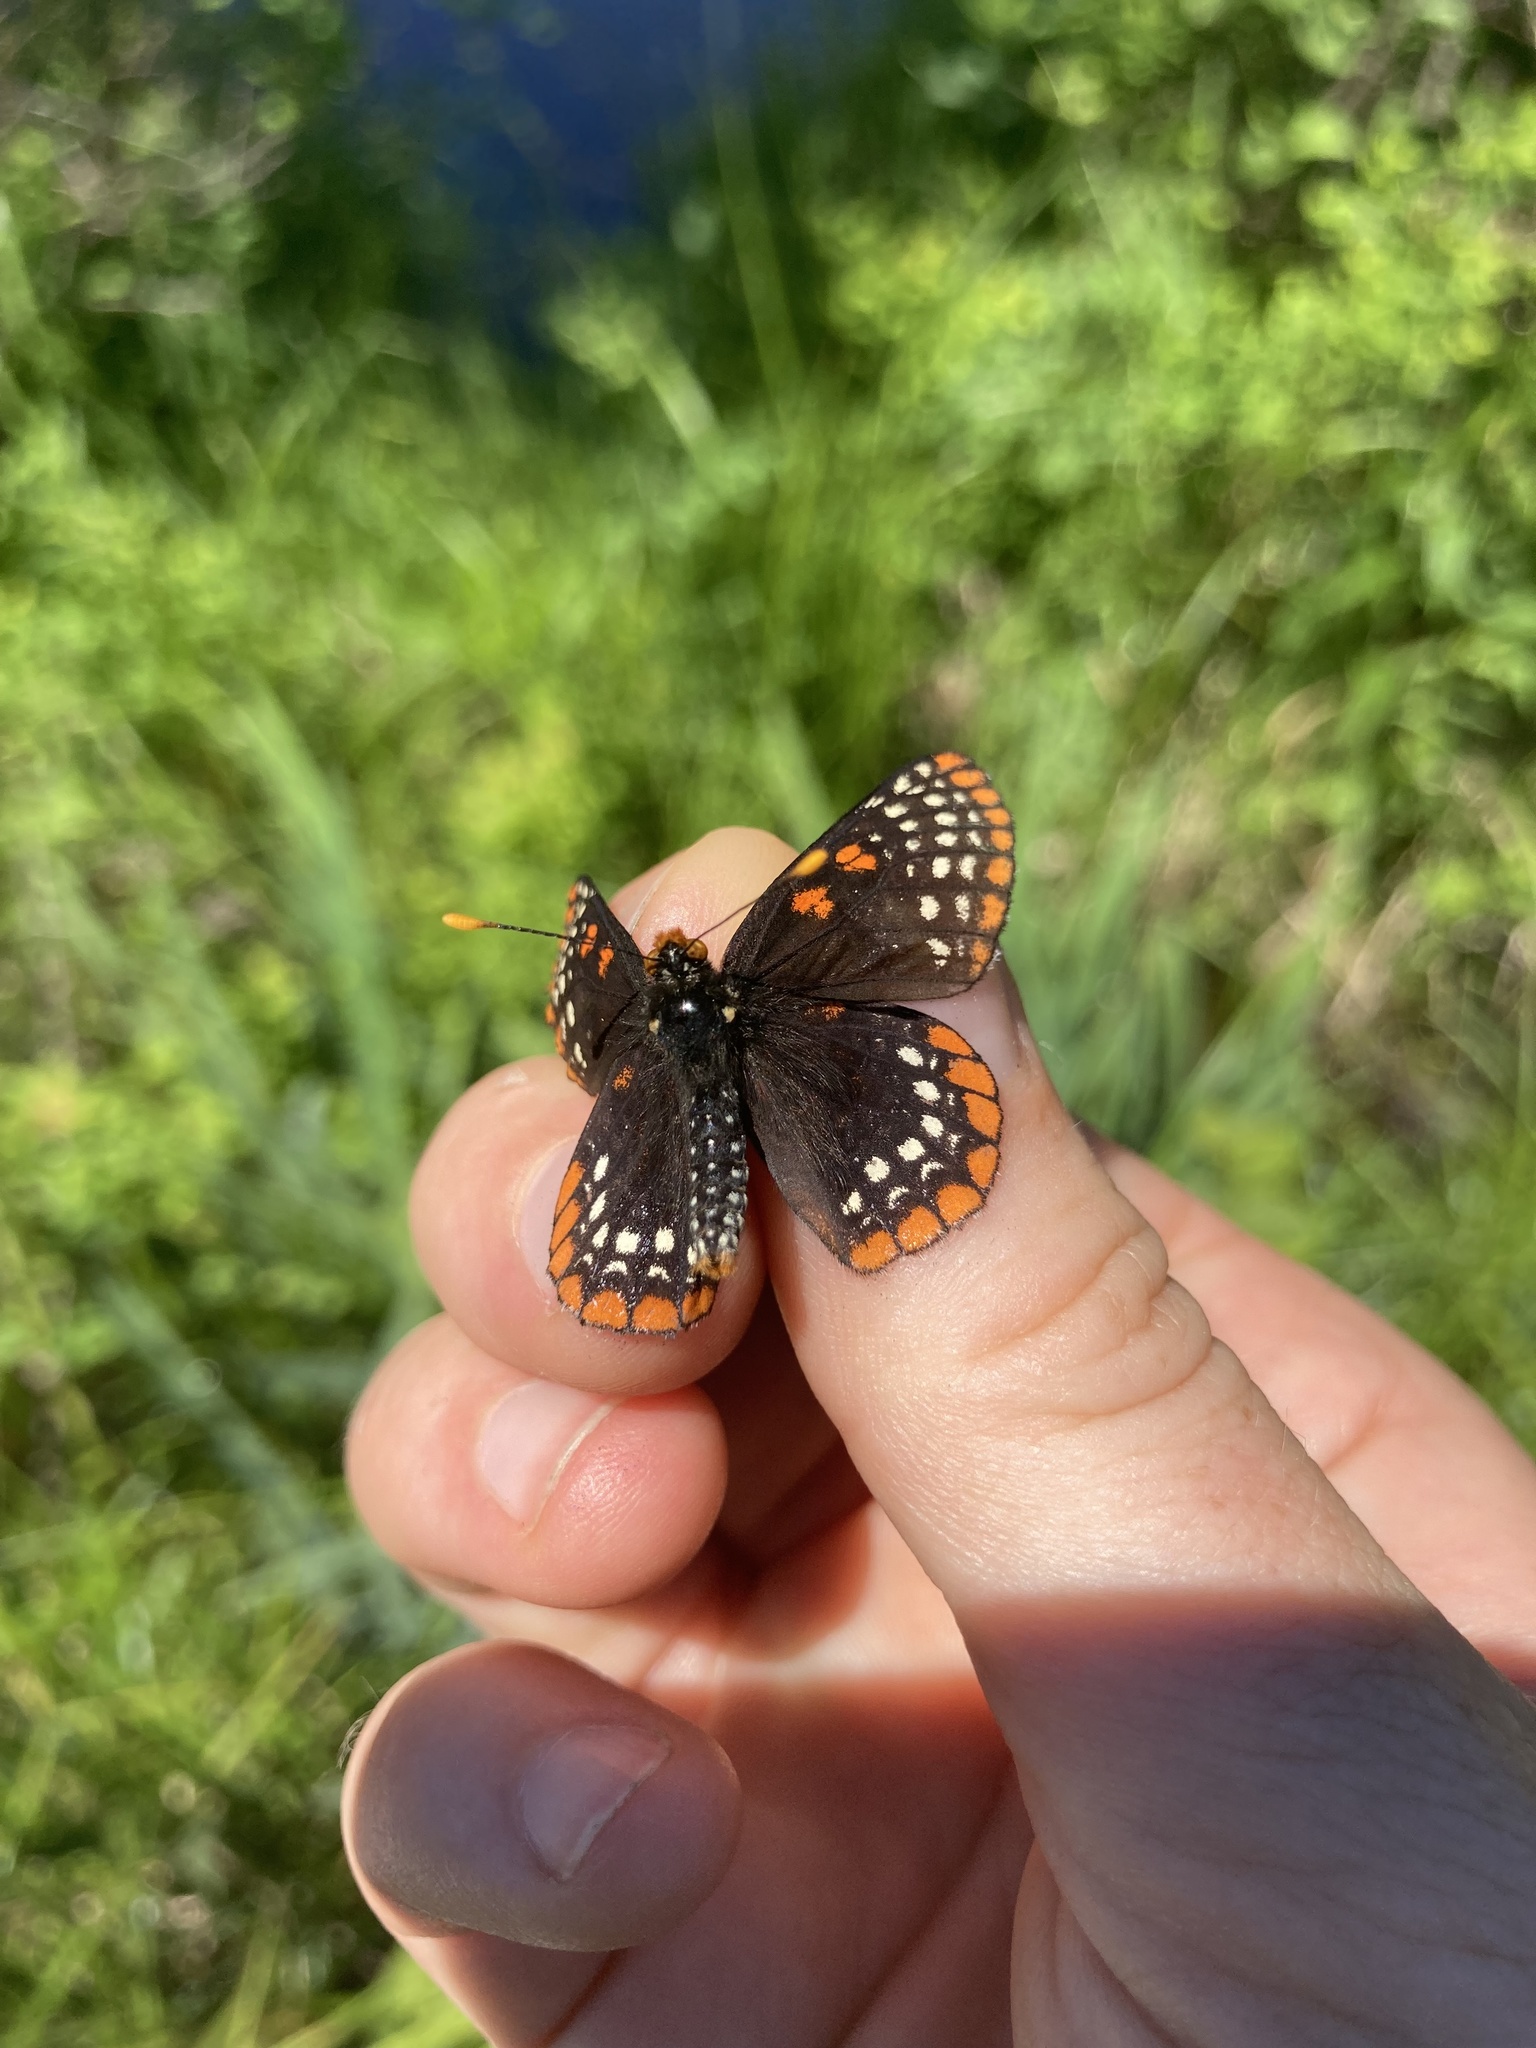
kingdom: Animalia
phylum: Arthropoda
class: Insecta
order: Lepidoptera
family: Nymphalidae
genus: Euphydryas
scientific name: Euphydryas phaeton
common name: Baltimore checkerspot
